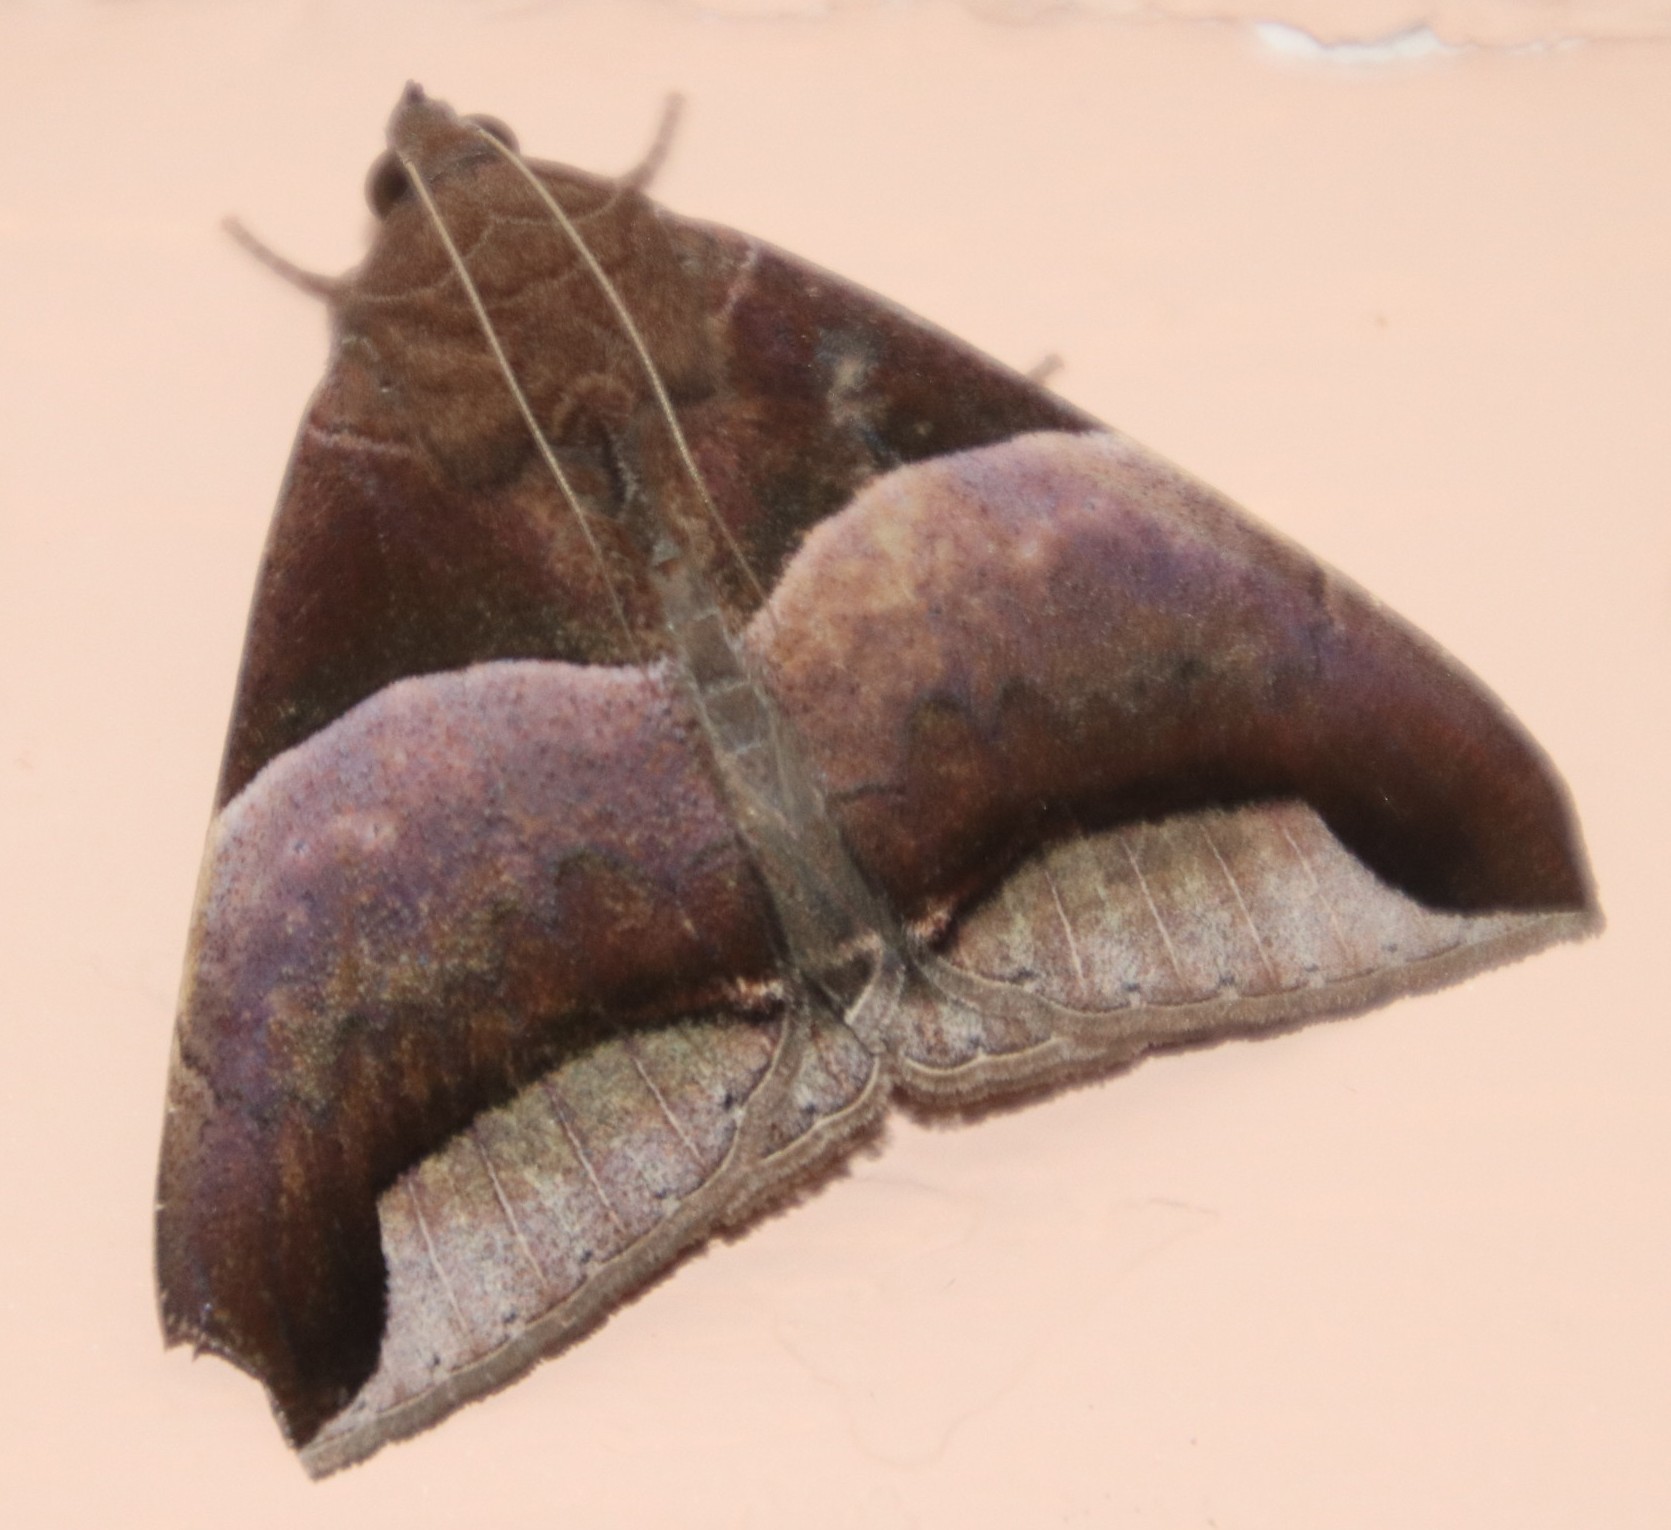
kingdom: Animalia
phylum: Arthropoda
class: Insecta
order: Lepidoptera
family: Erebidae
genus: Achaea
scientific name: Achaea echo
